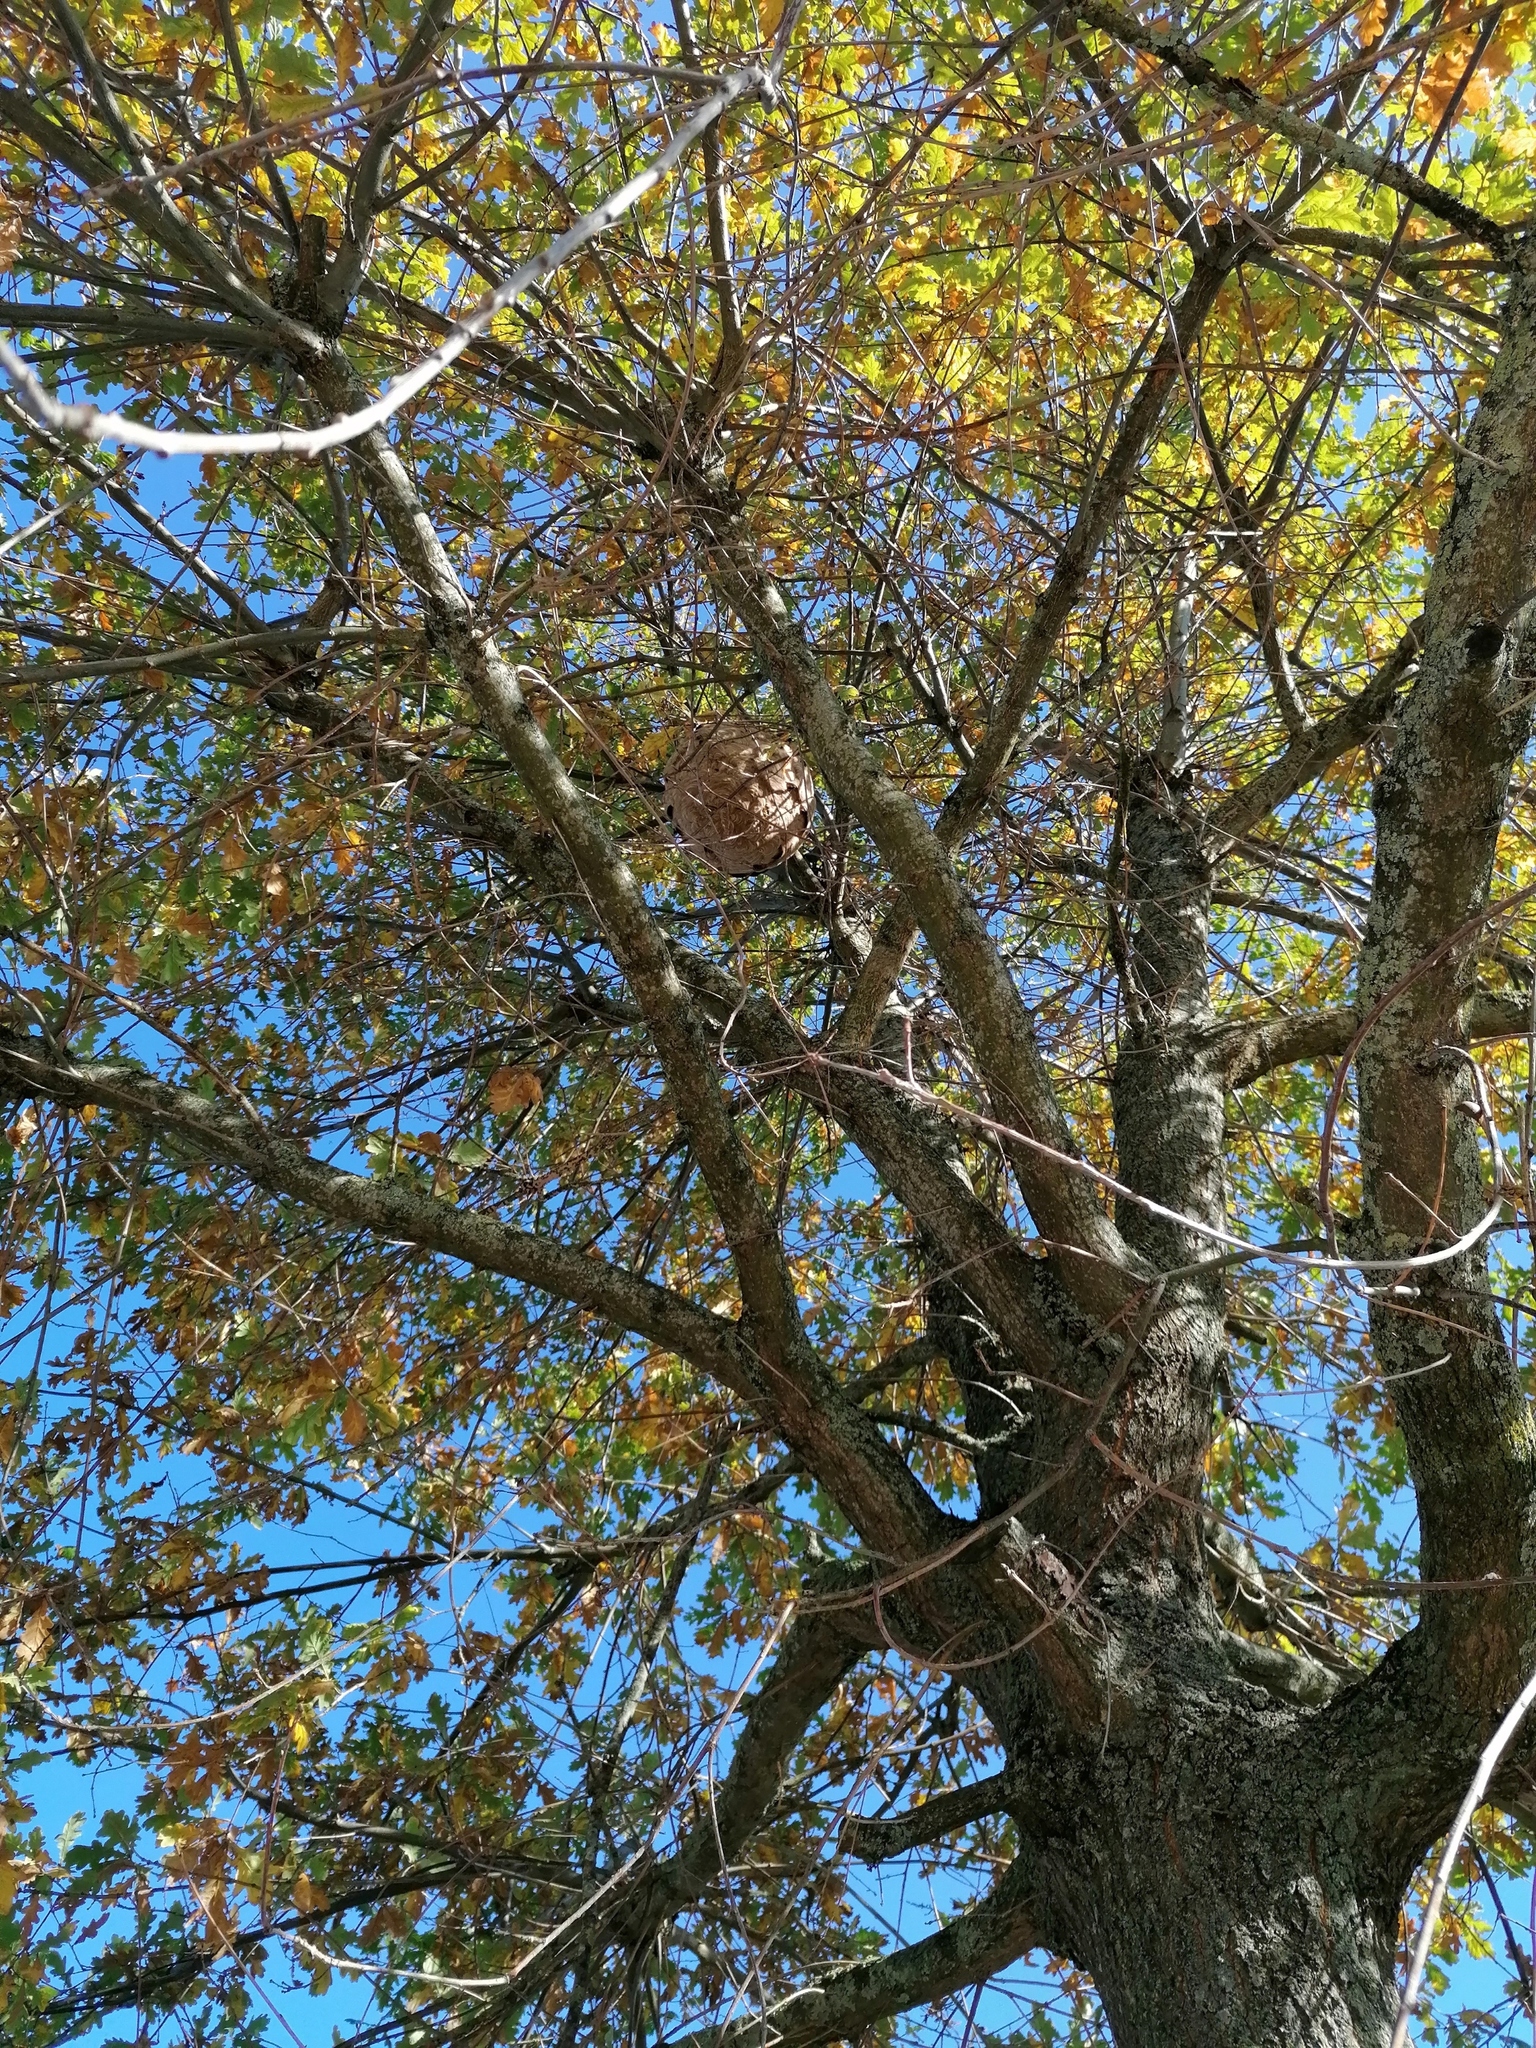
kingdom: Animalia
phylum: Arthropoda
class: Insecta
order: Hymenoptera
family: Vespidae
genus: Vespa
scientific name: Vespa velutina
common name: Asian hornet
